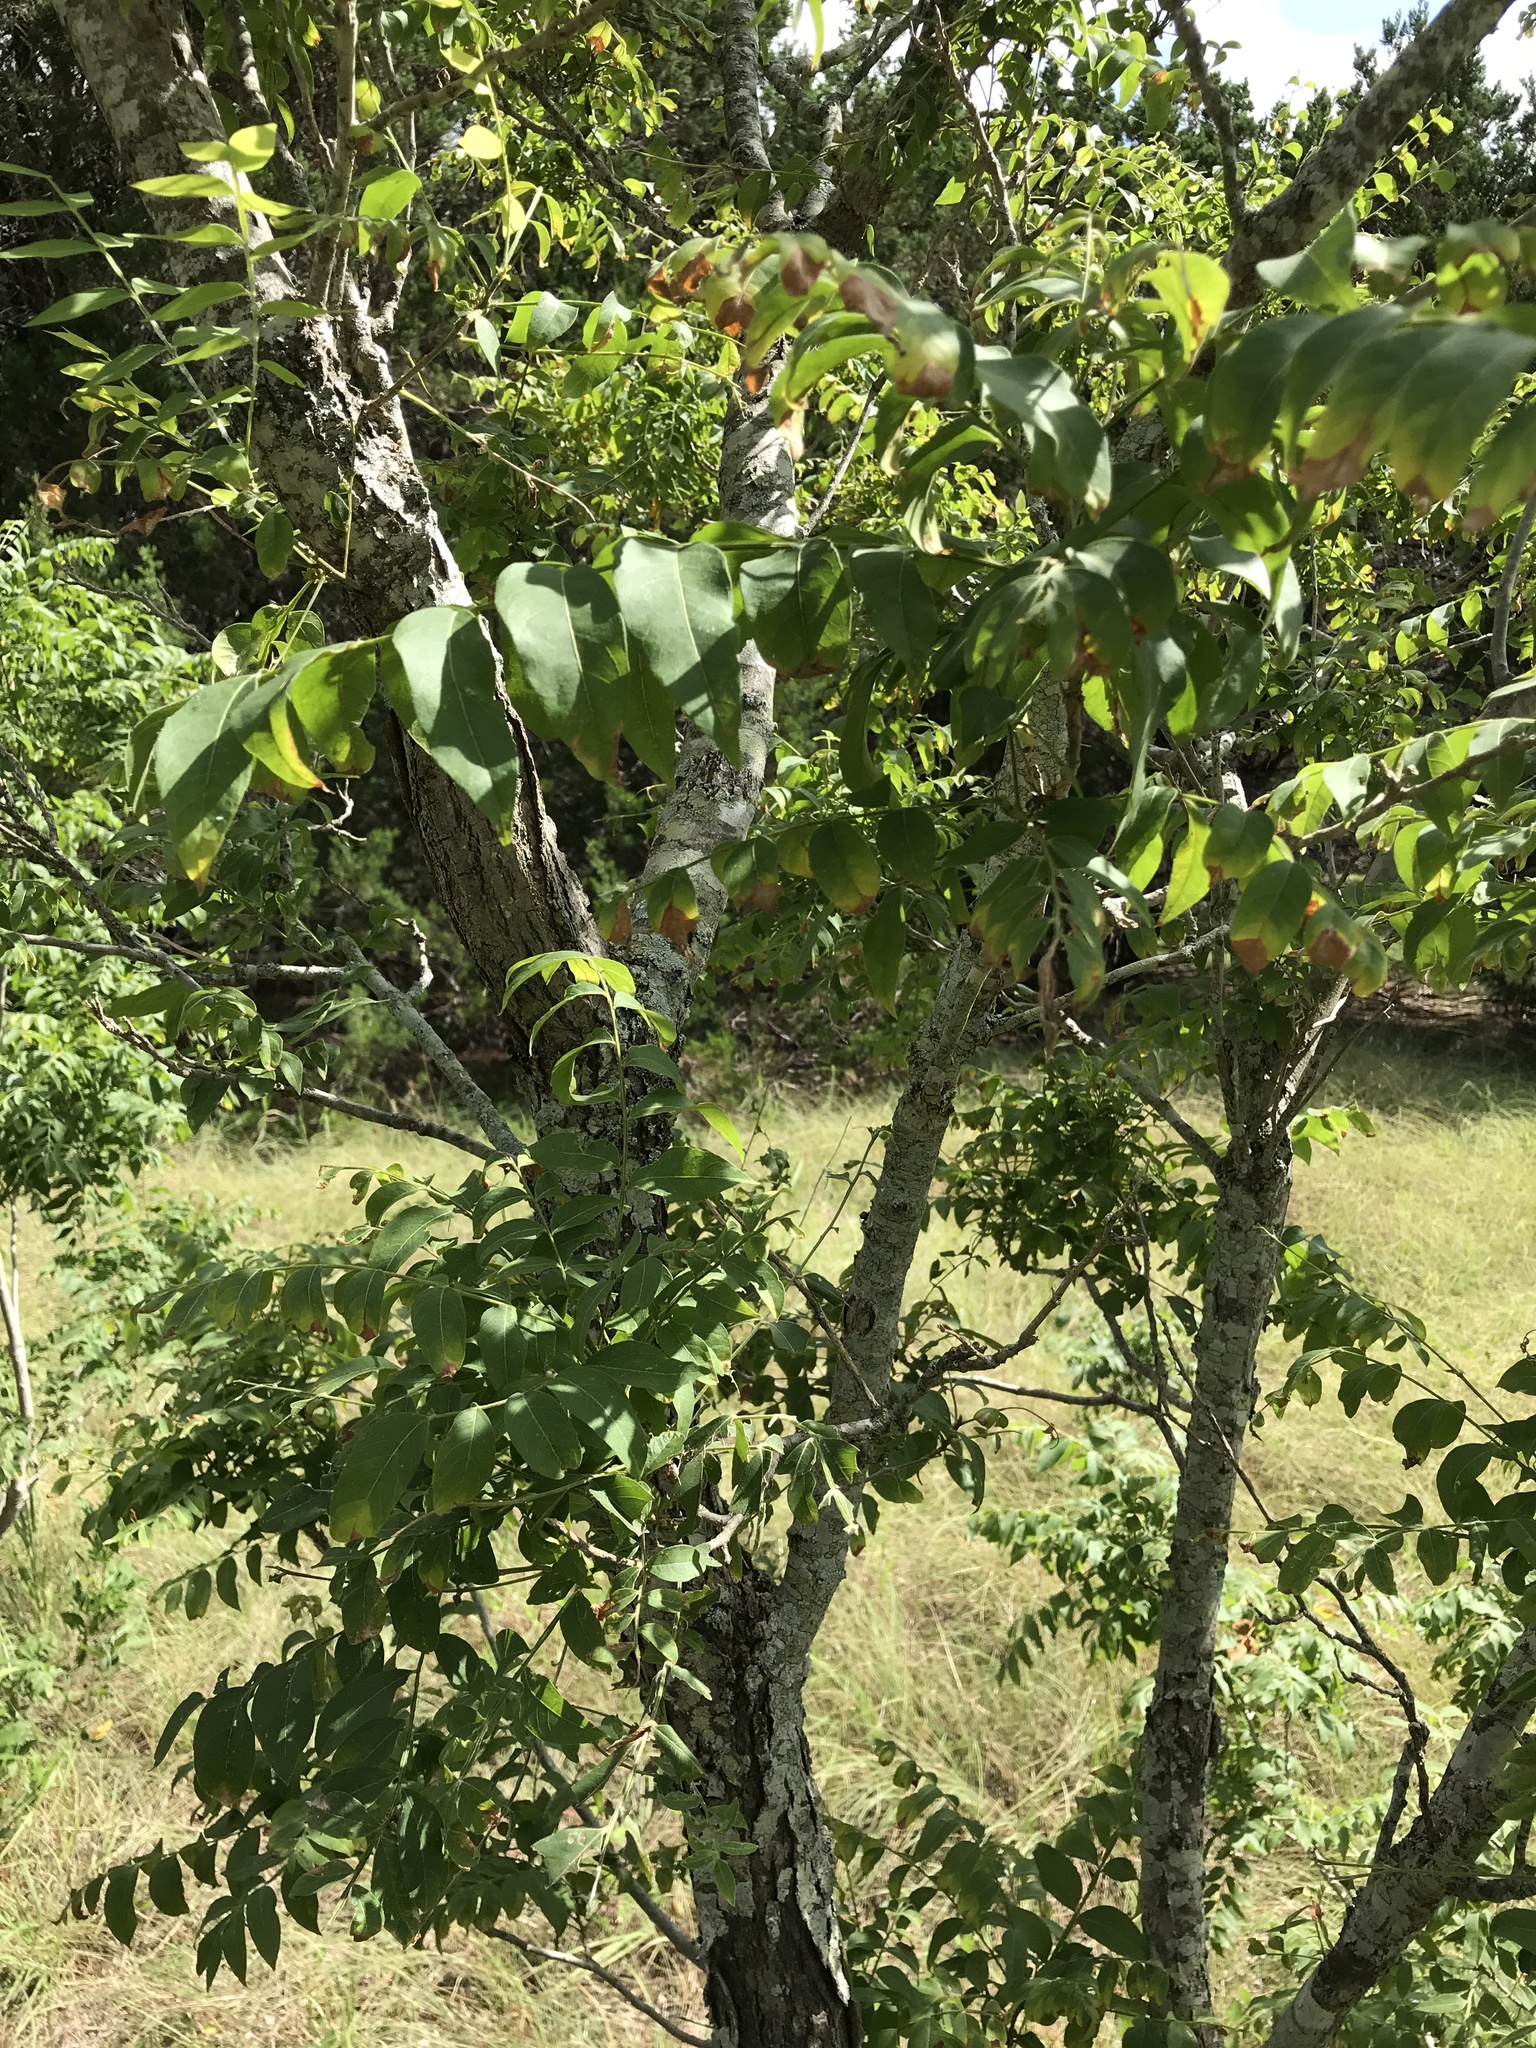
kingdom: Plantae
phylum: Tracheophyta
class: Magnoliopsida
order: Sapindales
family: Sapindaceae
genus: Sapindus
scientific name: Sapindus drummondii
